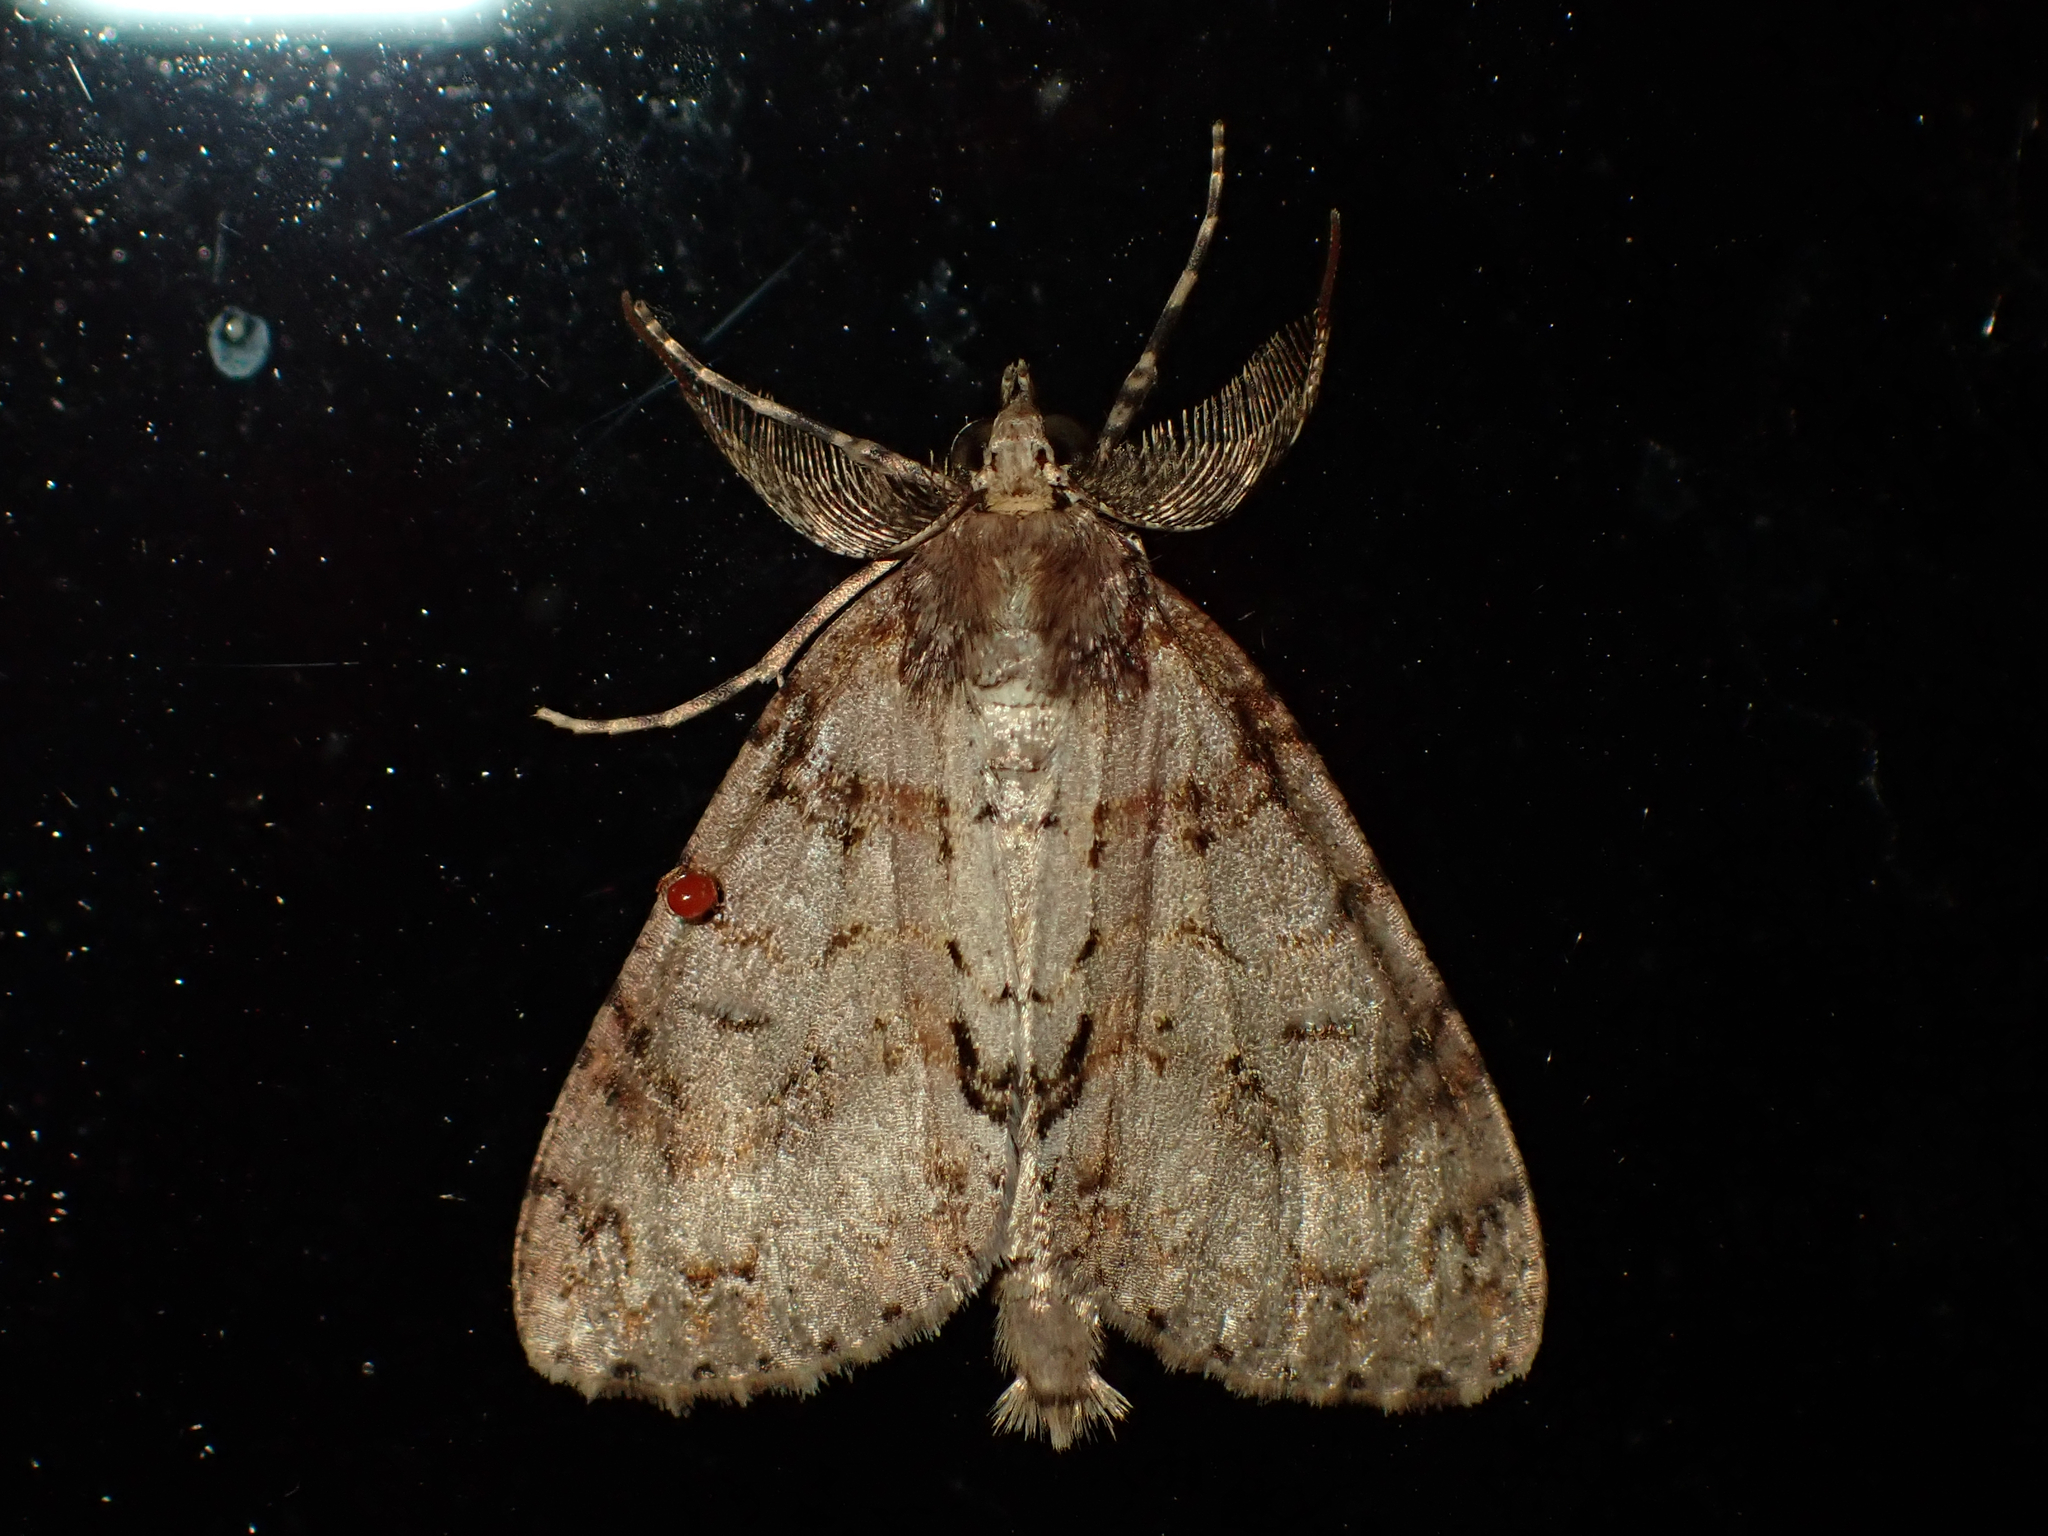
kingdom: Animalia
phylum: Arthropoda
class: Insecta
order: Lepidoptera
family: Geometridae
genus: Pseudocoremia
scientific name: Pseudocoremia suavis
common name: Common forest looper
